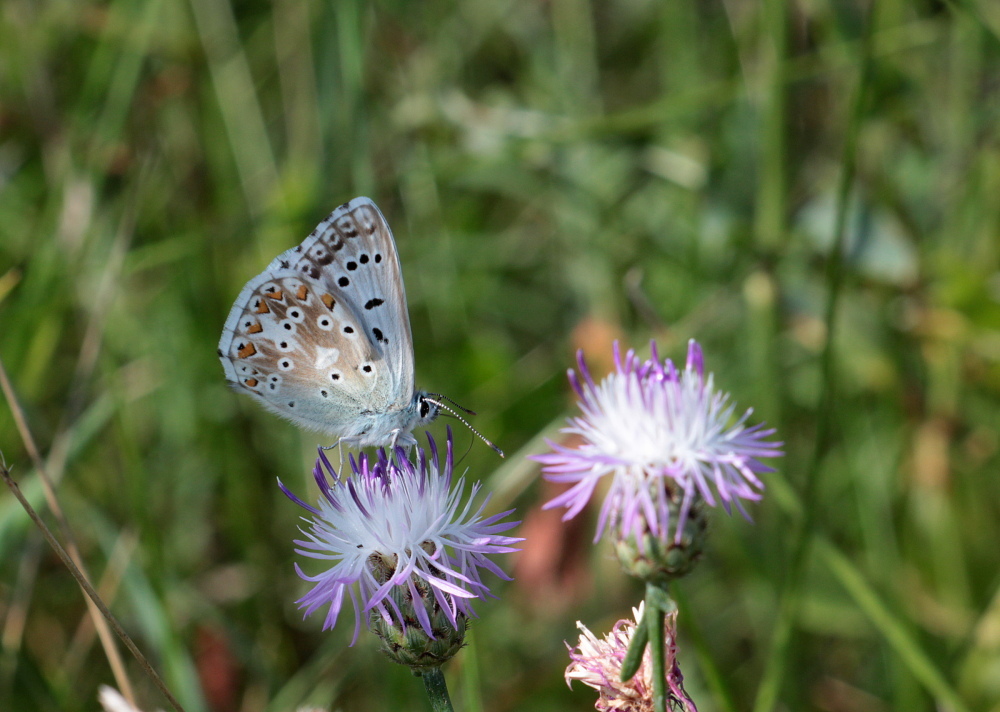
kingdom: Animalia
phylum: Arthropoda
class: Insecta
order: Lepidoptera
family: Lycaenidae
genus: Lysandra
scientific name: Lysandra coridon
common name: Chalkhill blue
